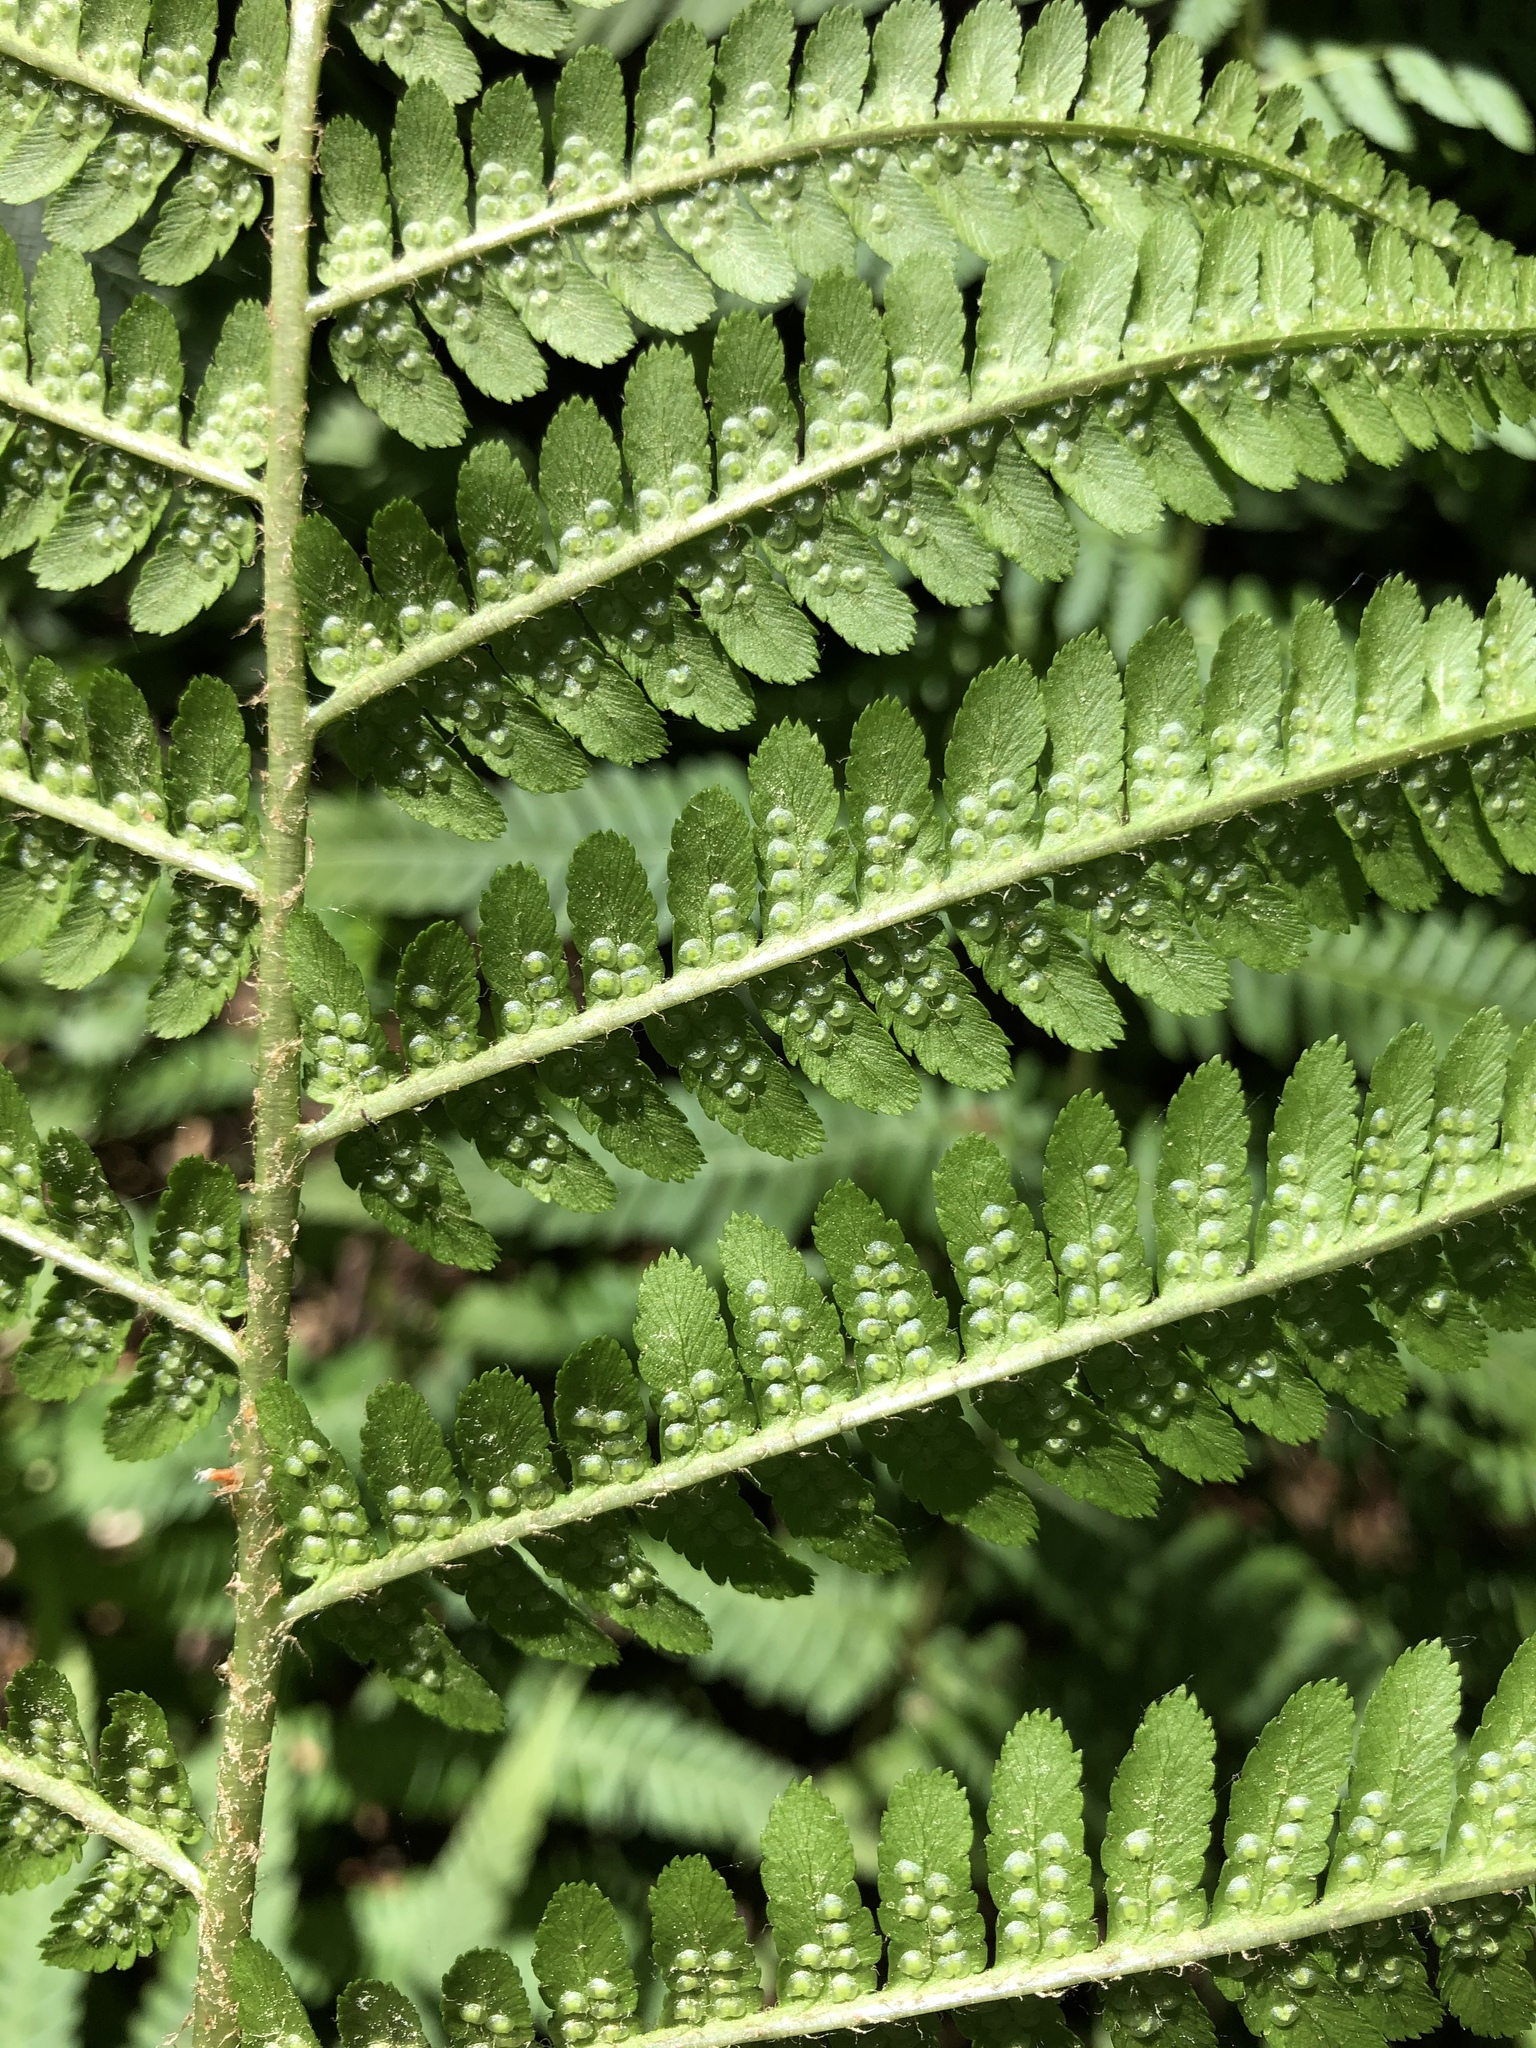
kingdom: Plantae
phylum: Tracheophyta
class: Polypodiopsida
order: Polypodiales
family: Dryopteridaceae
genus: Dryopteris
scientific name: Dryopteris filix-mas
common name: Male fern
